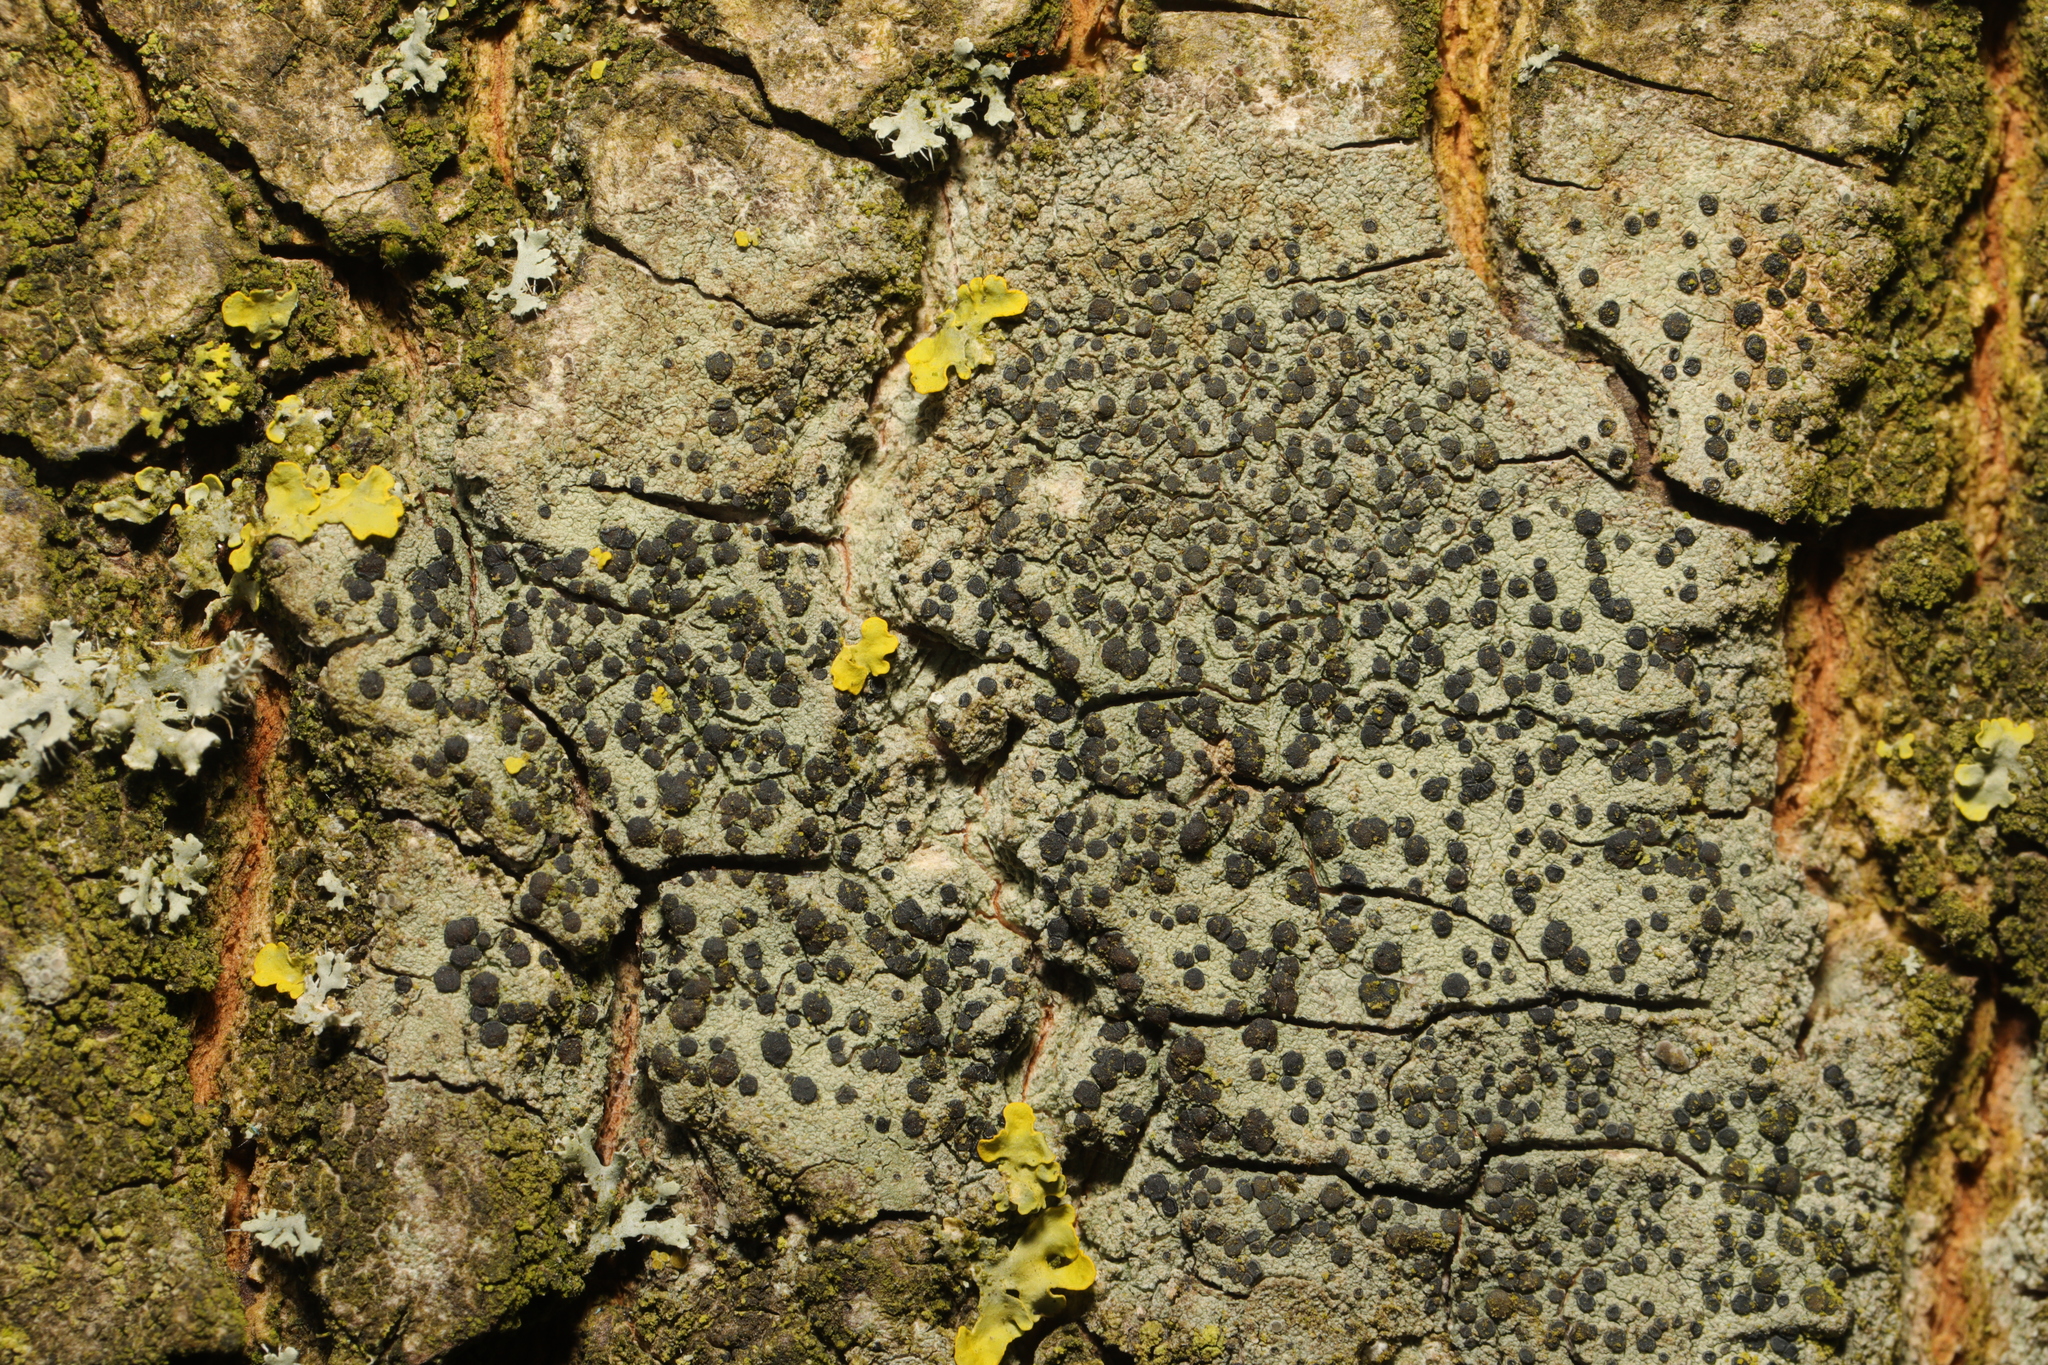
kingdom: Fungi
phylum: Ascomycota
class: Lecanoromycetes
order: Lecanorales
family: Lecanoraceae
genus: Lecidella
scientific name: Lecidella elaeochroma
